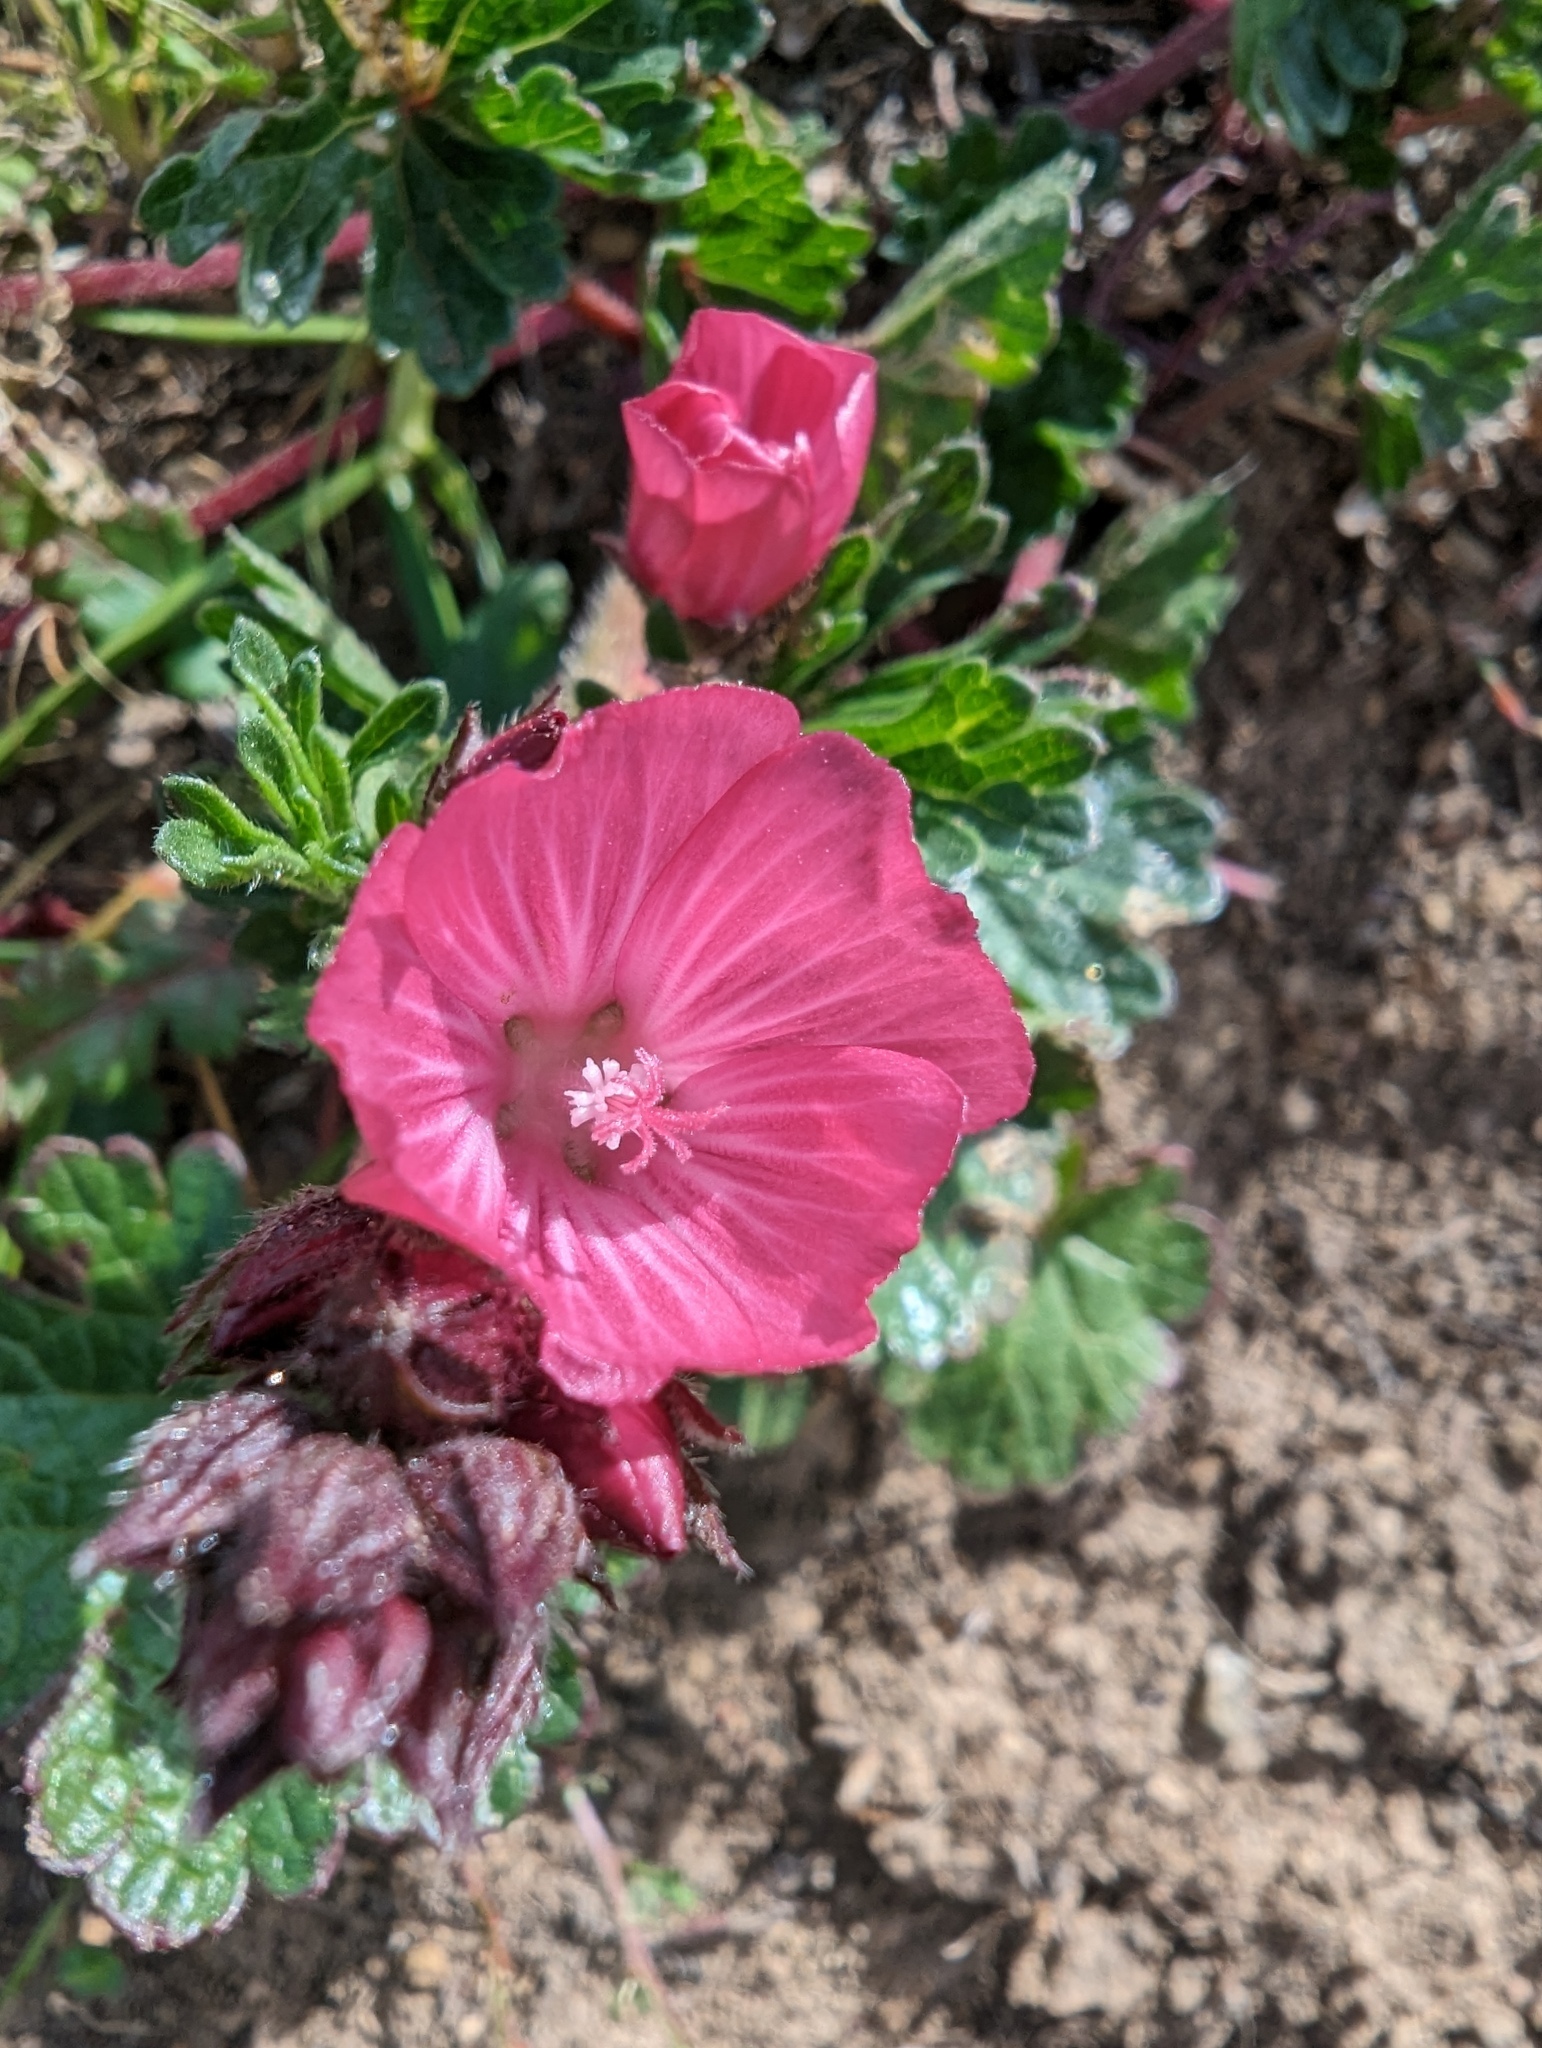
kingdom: Plantae
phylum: Tracheophyta
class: Magnoliopsida
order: Malvales
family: Malvaceae
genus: Sidalcea
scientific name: Sidalcea malviflora
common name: Greek mallow
